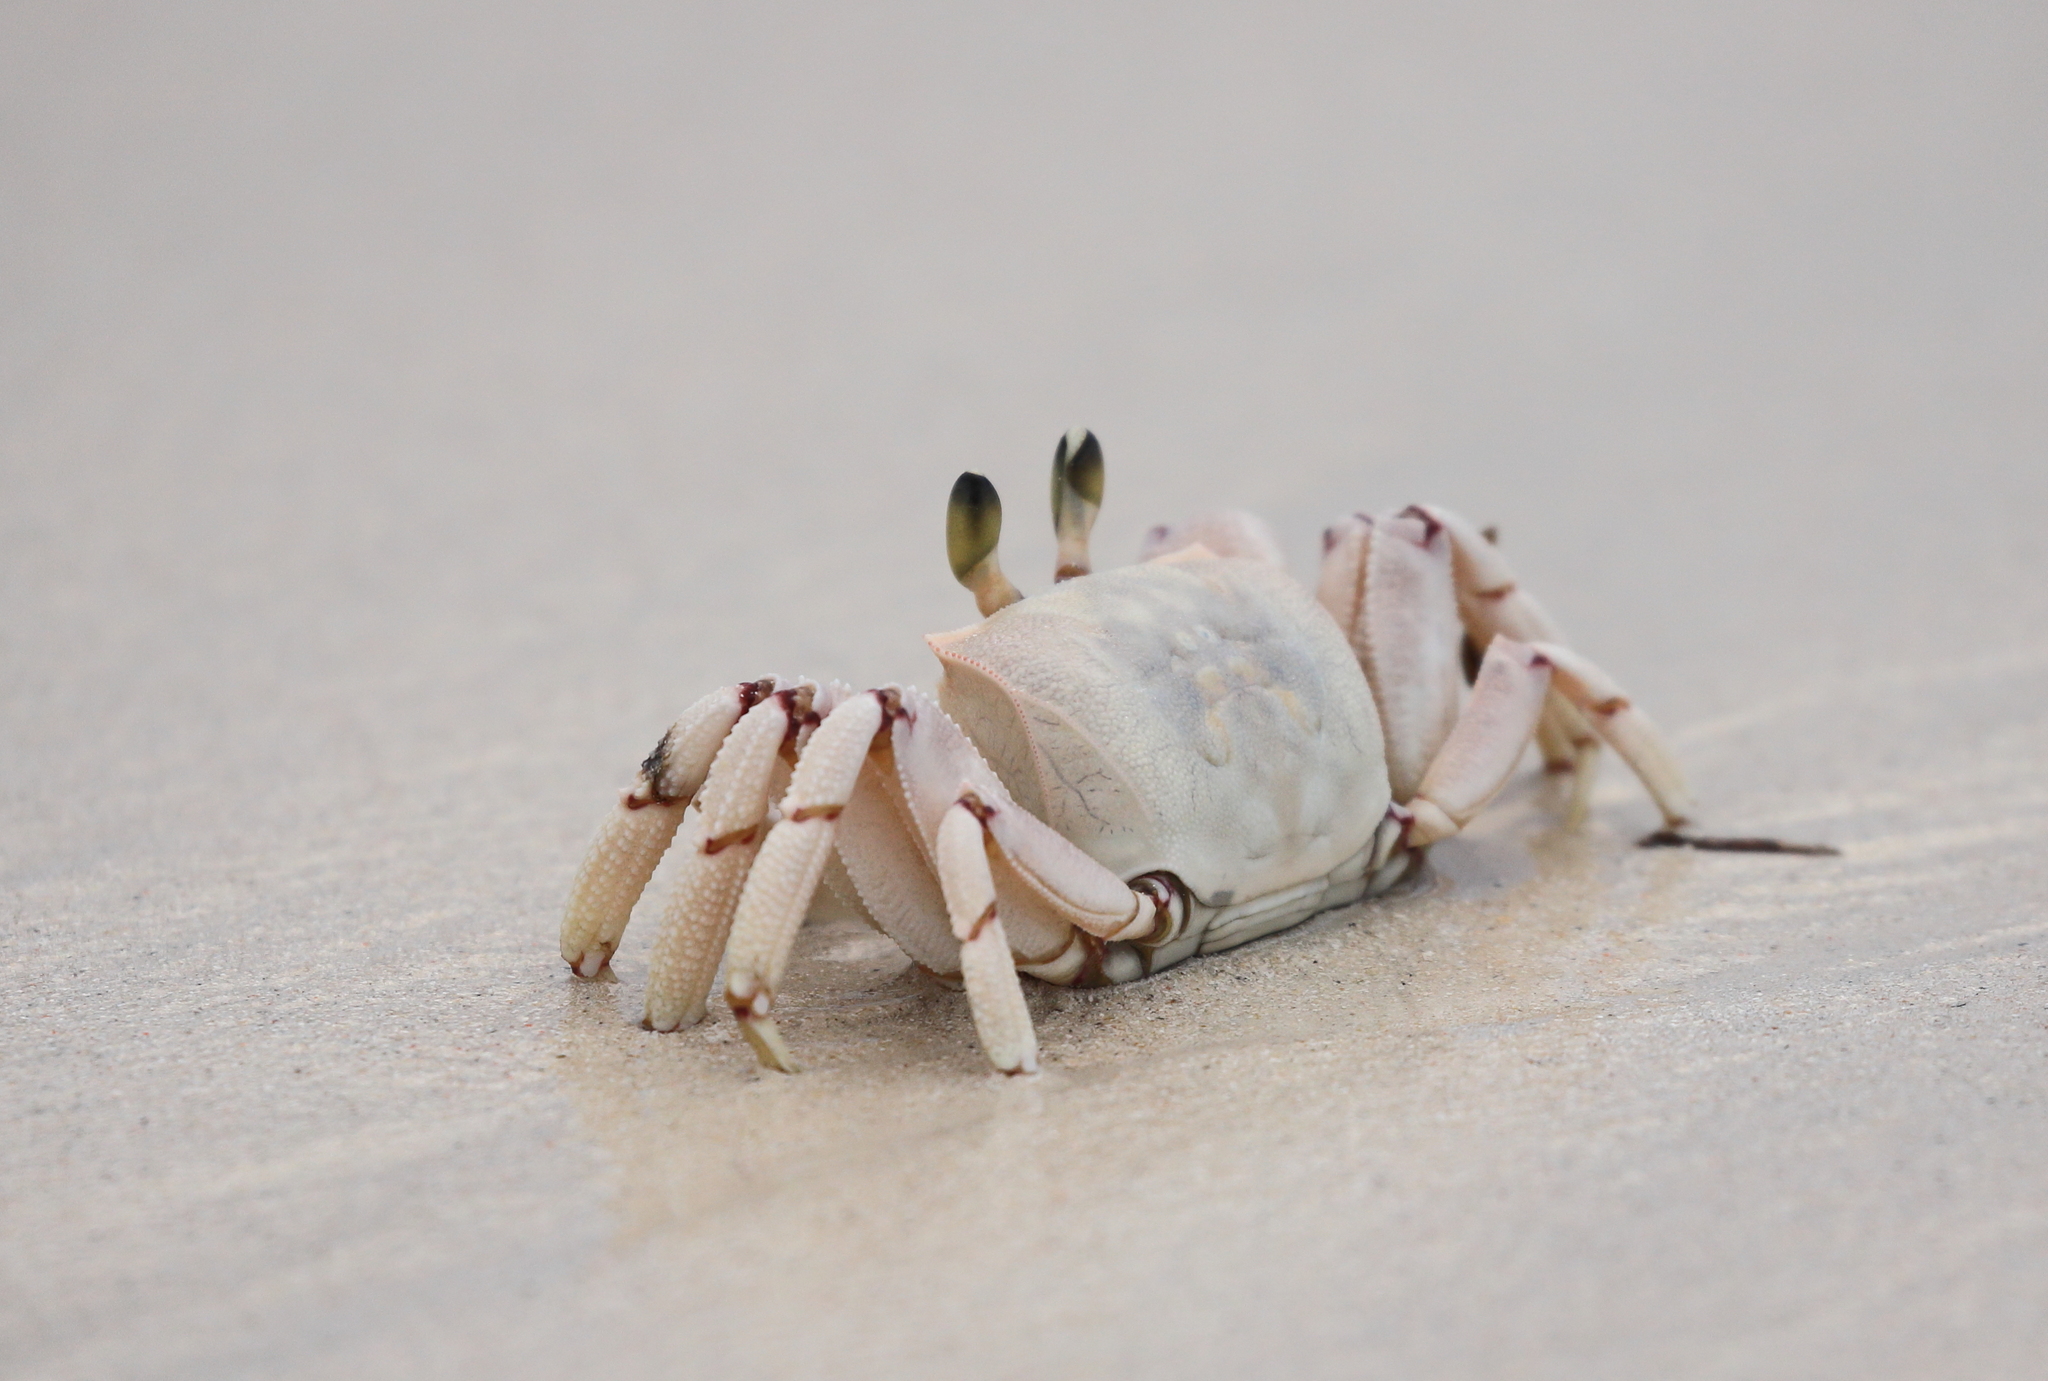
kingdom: Animalia
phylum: Arthropoda
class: Malacostraca
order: Decapoda
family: Ocypodidae
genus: Ocypode
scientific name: Ocypode ryderi
